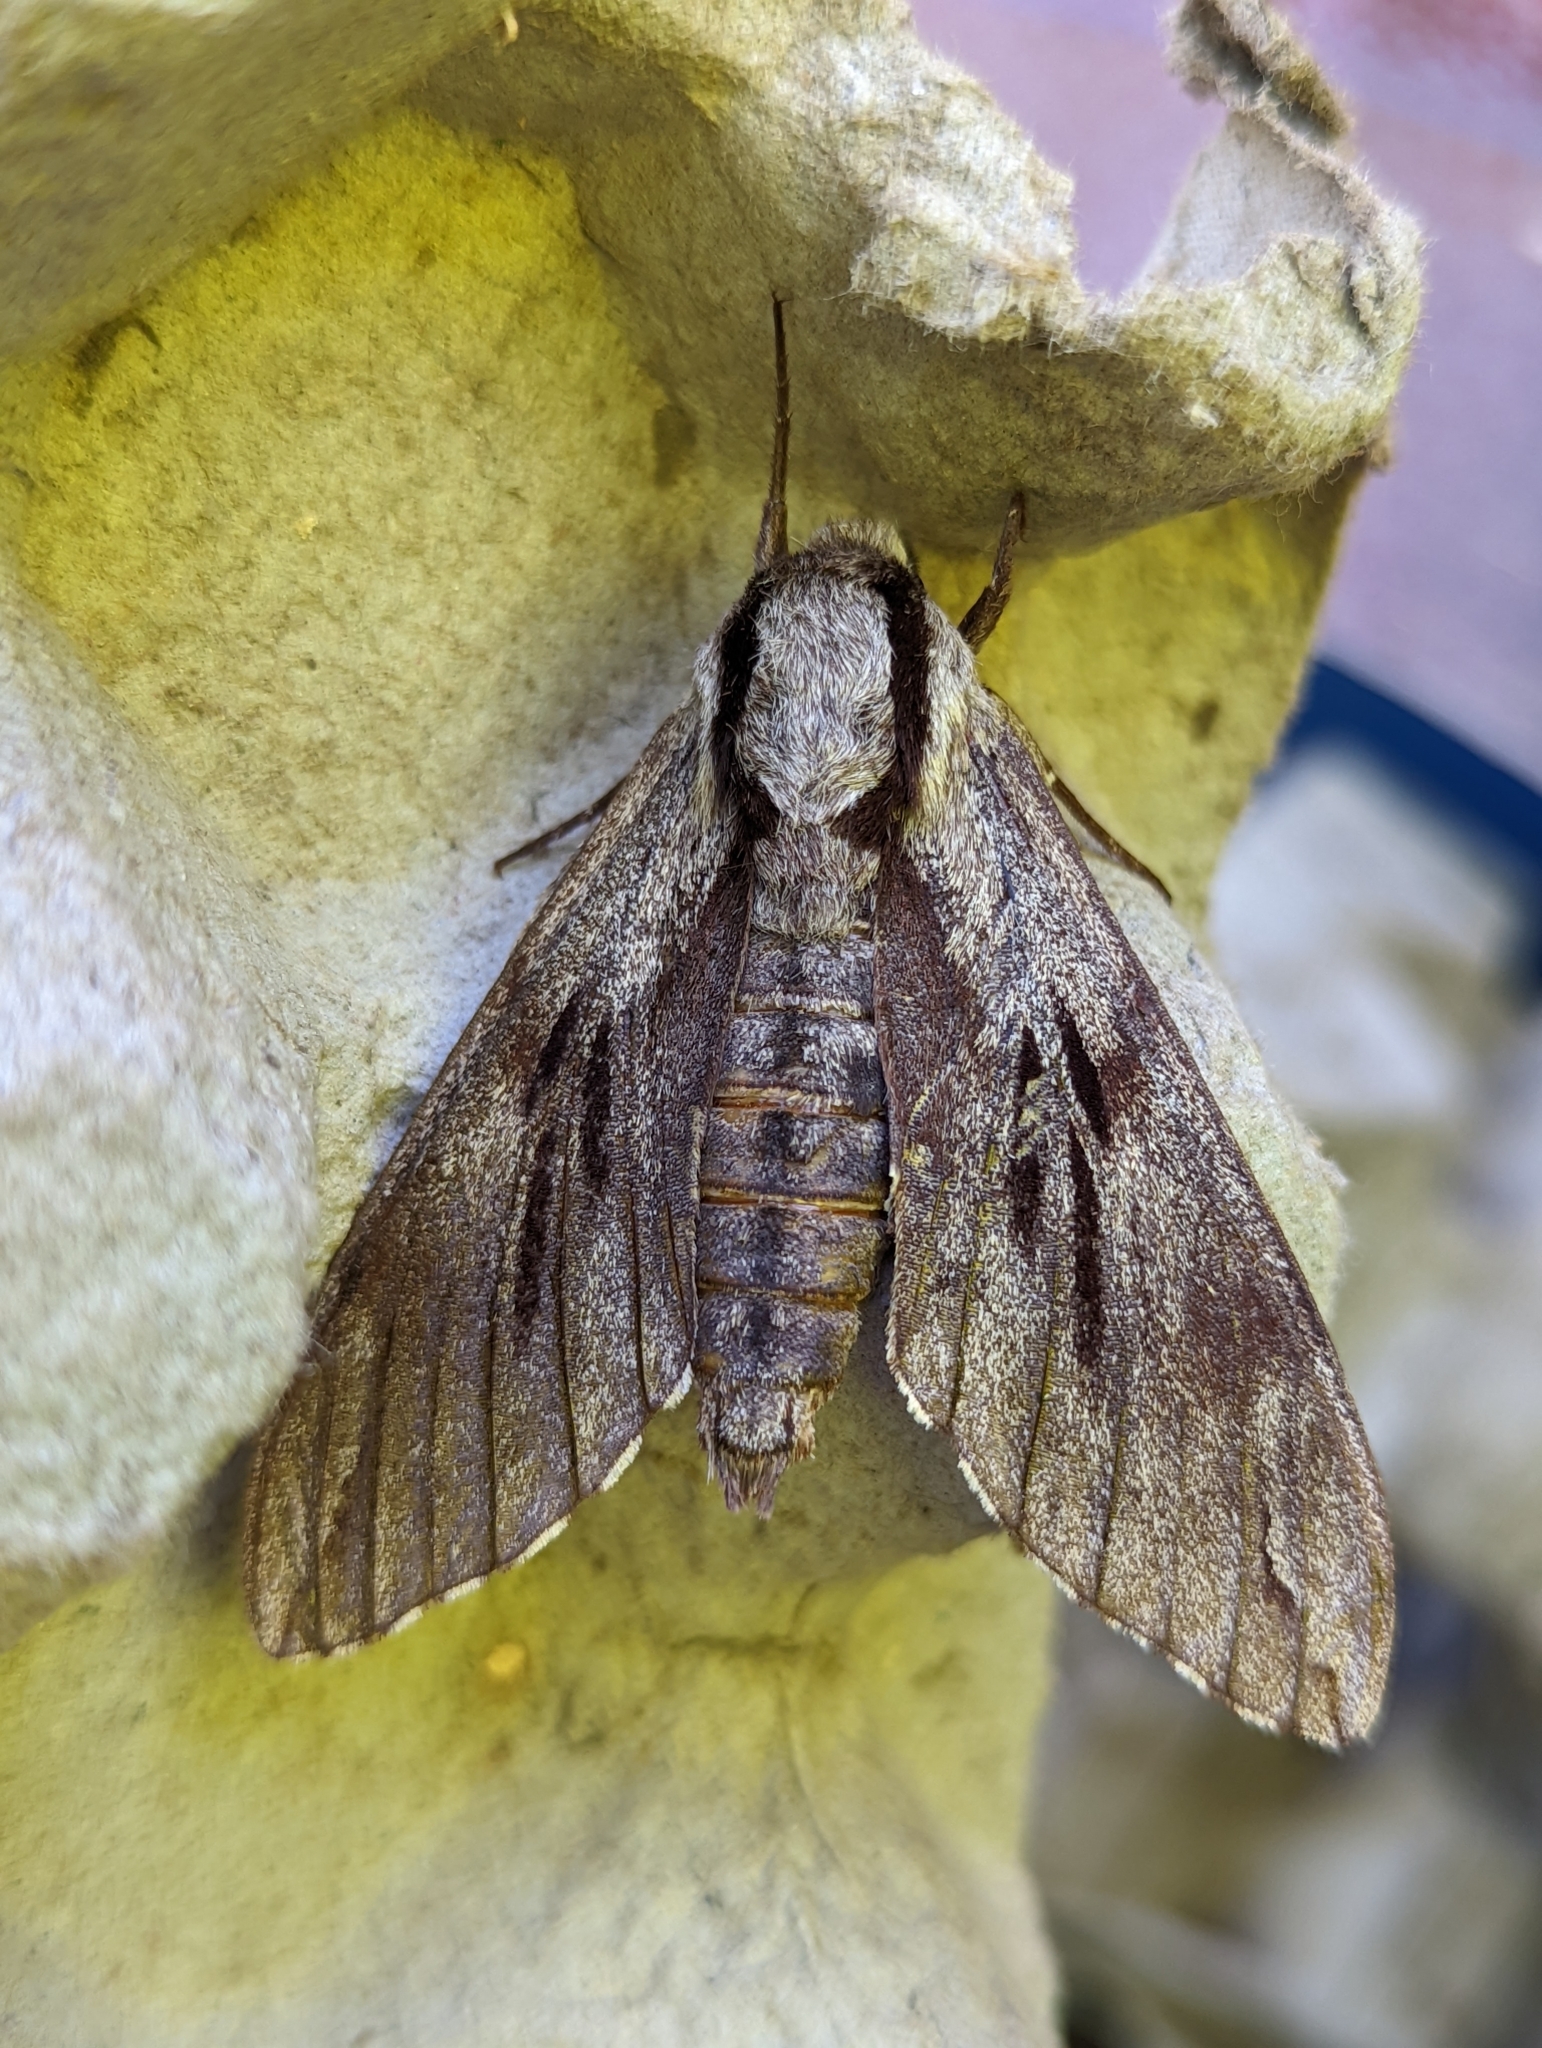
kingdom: Animalia
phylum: Arthropoda
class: Insecta
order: Lepidoptera
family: Sphingidae
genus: Sphinx
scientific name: Sphinx pinastri
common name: Pine hawk-moth
